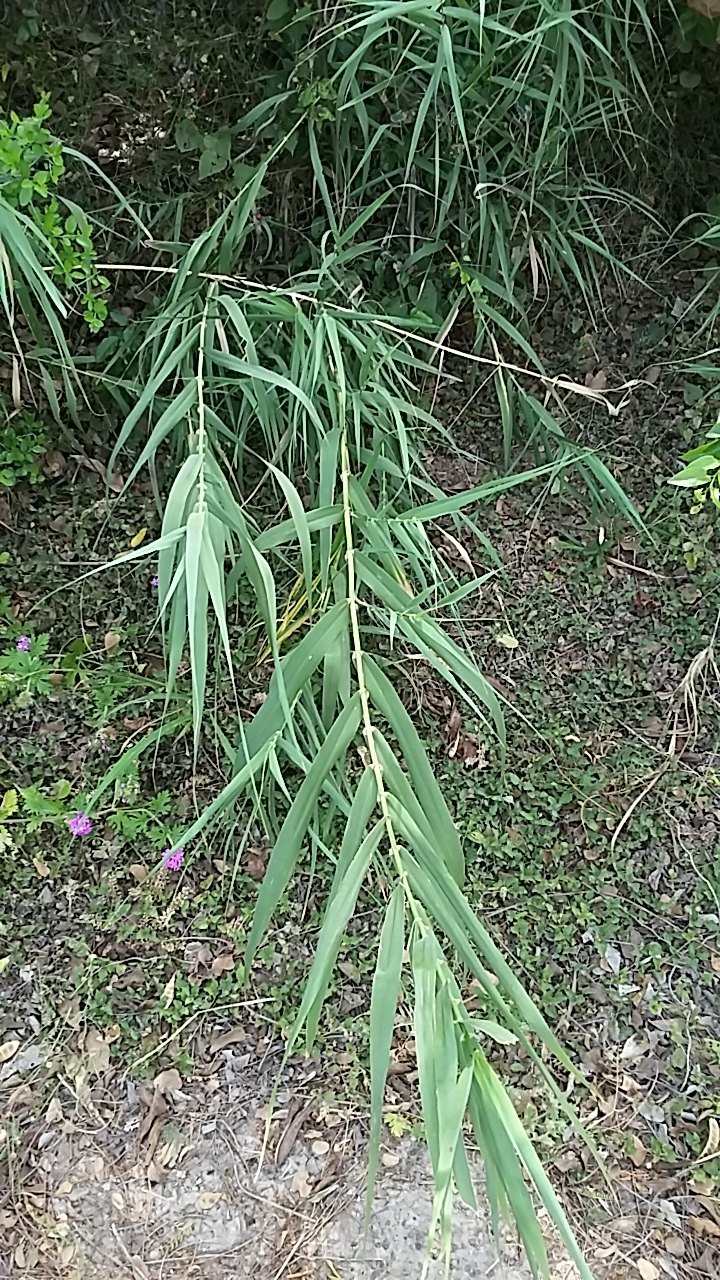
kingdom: Plantae
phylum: Tracheophyta
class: Liliopsida
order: Poales
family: Poaceae
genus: Arundo
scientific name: Arundo donax
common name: Giant reed
